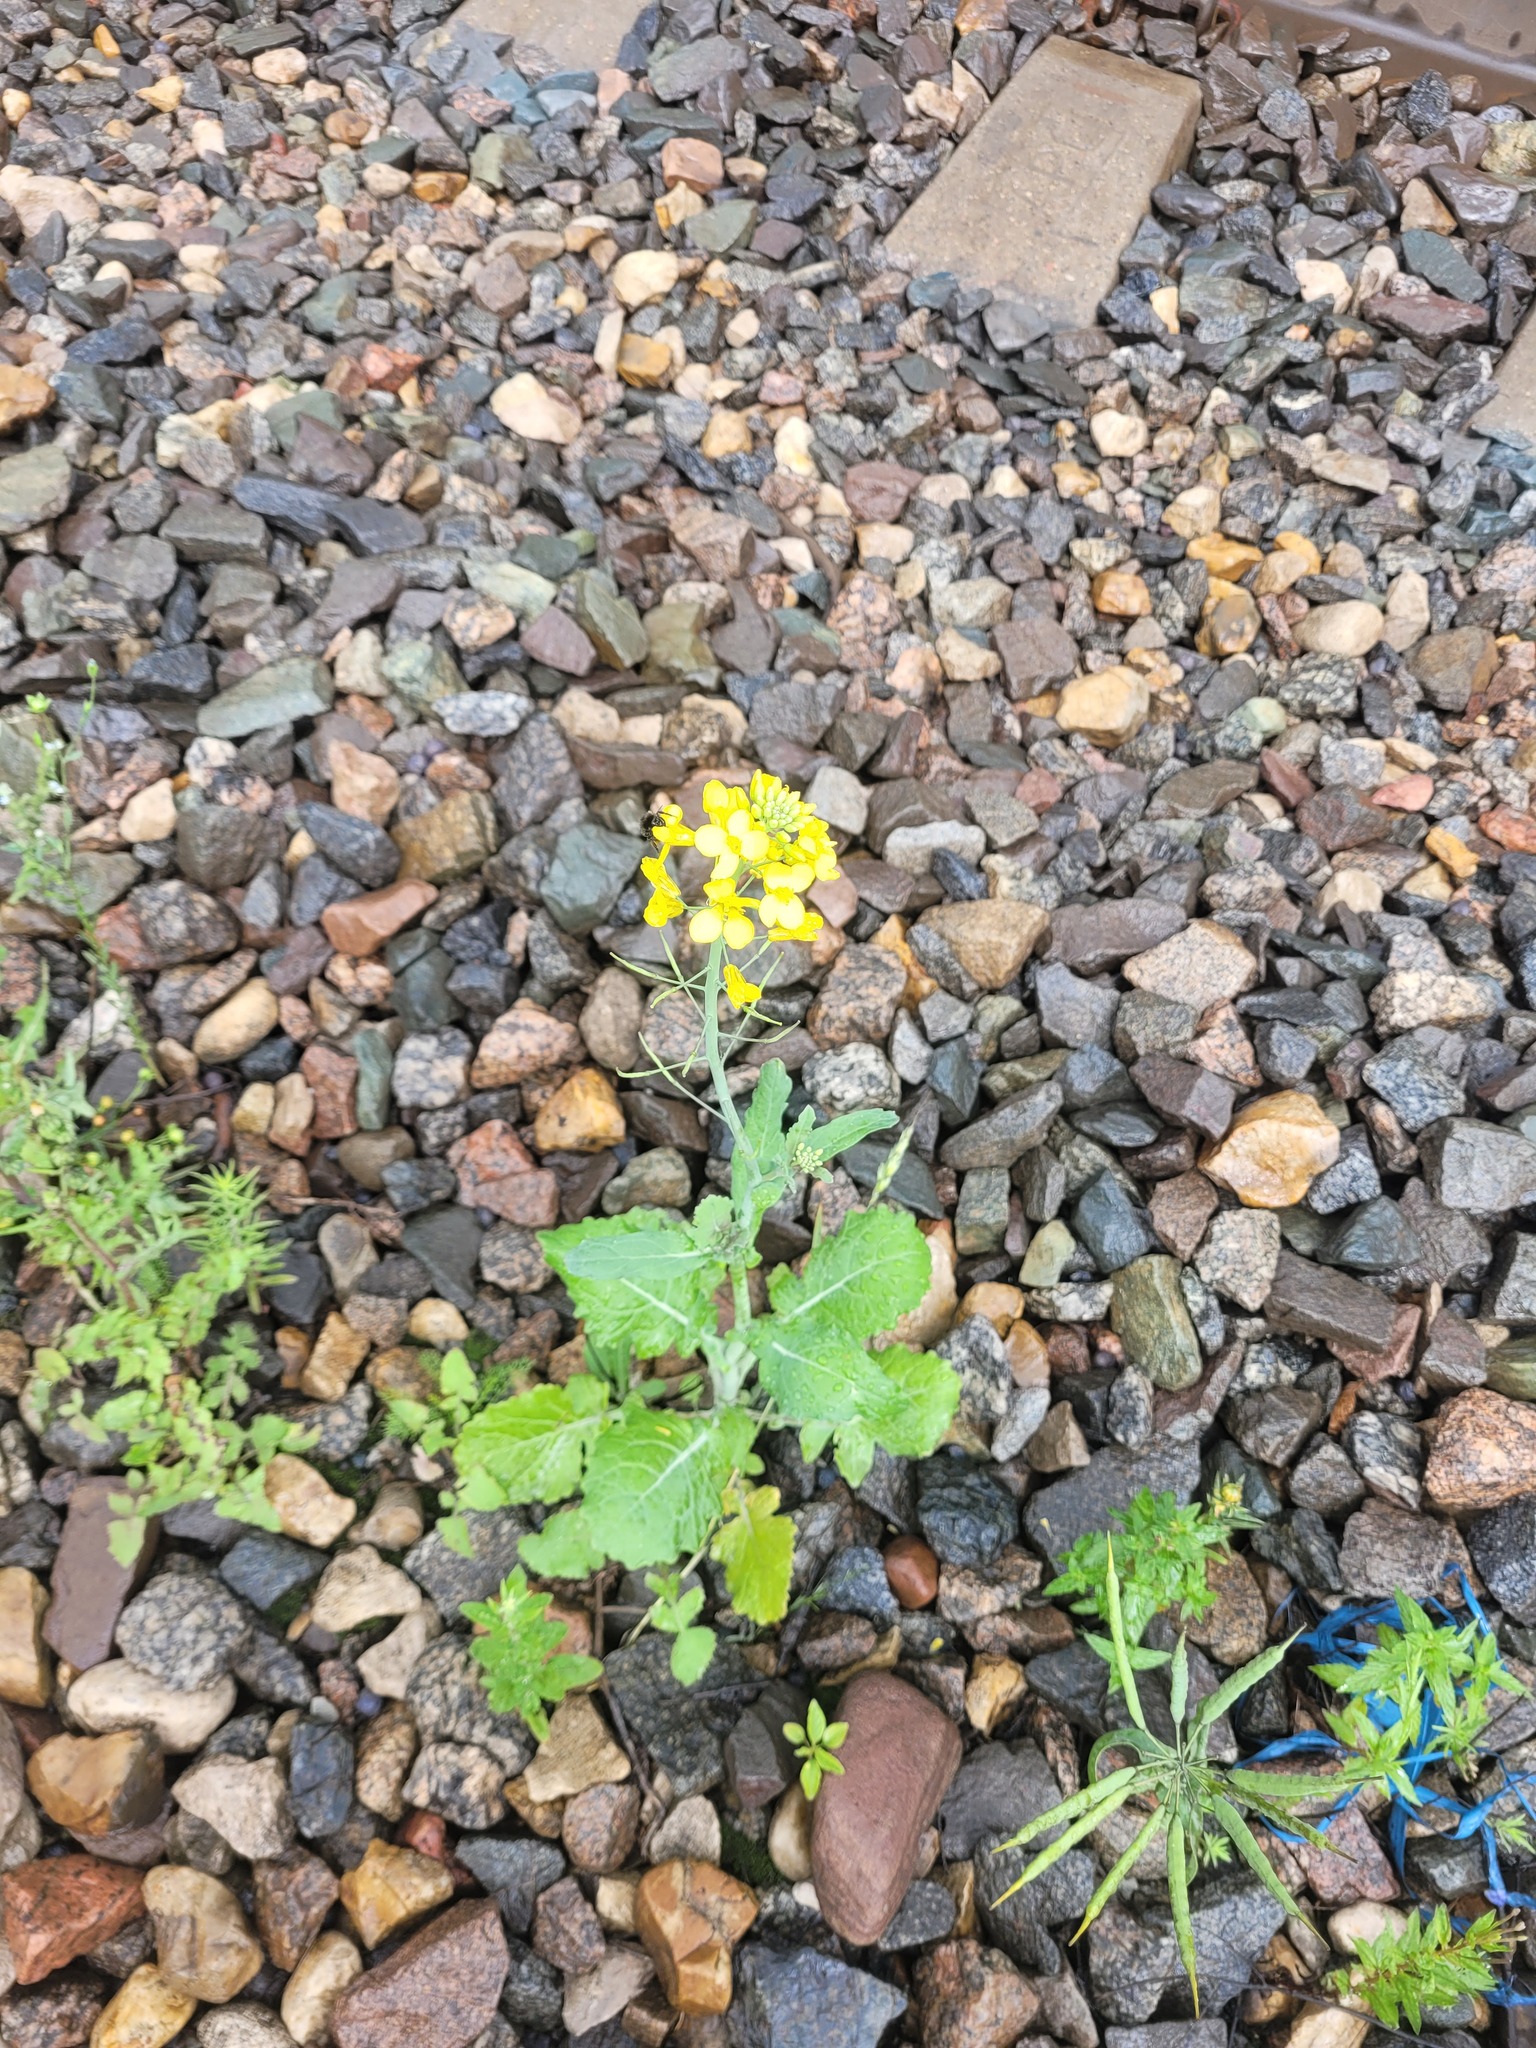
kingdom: Plantae
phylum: Tracheophyta
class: Magnoliopsida
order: Brassicales
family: Brassicaceae
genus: Brassica
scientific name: Brassica napus
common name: Rape
